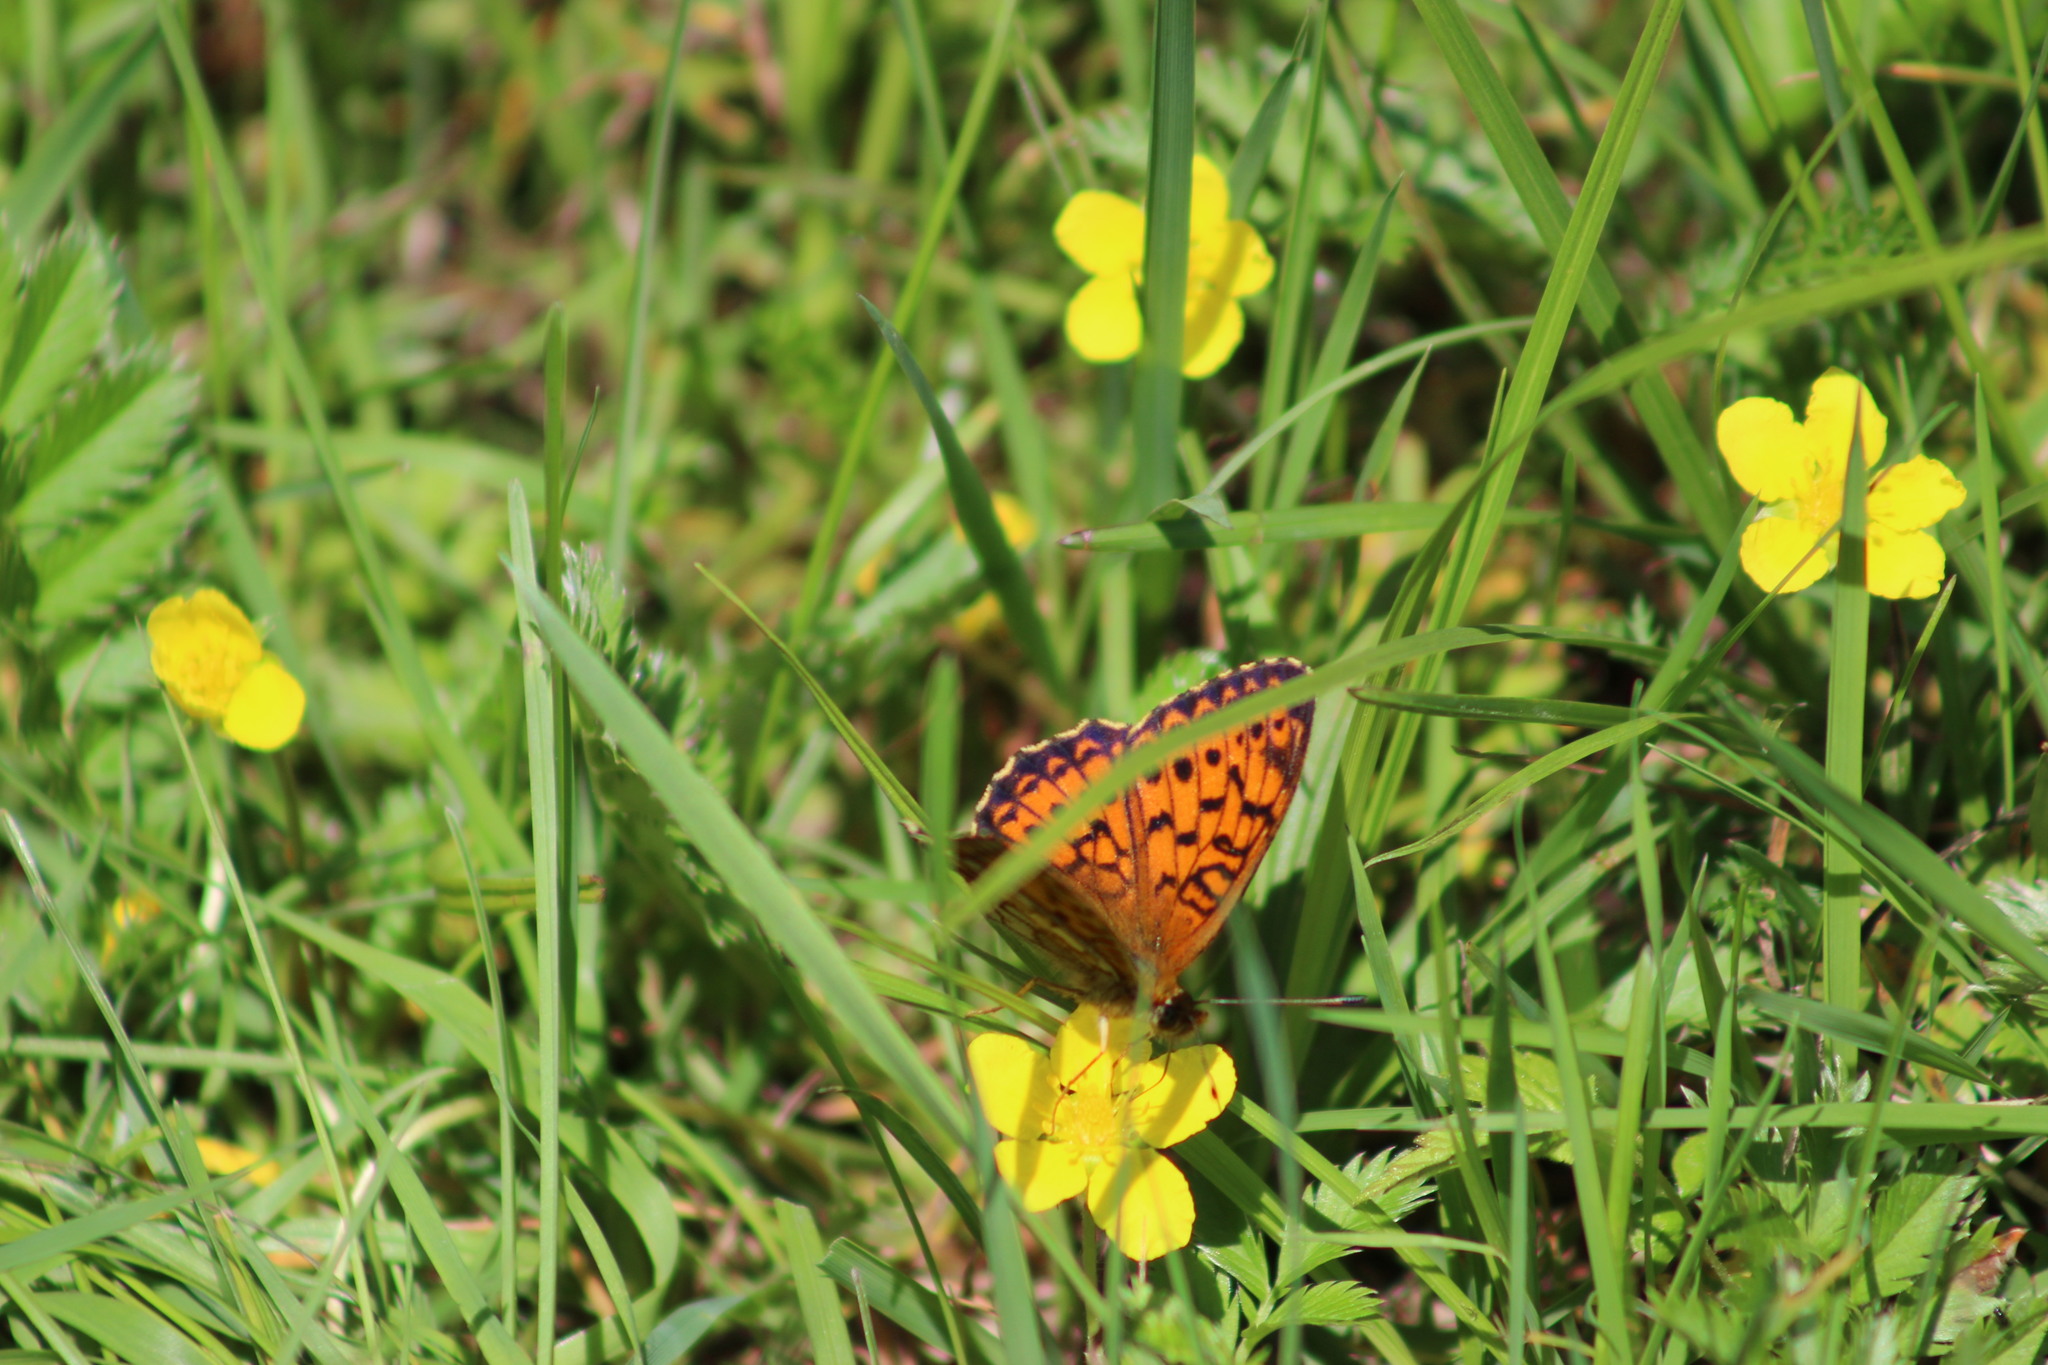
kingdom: Animalia
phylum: Arthropoda
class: Insecta
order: Lepidoptera
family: Nymphalidae
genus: Brenthis
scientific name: Brenthis ino
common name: Lesser marbled fritillary
